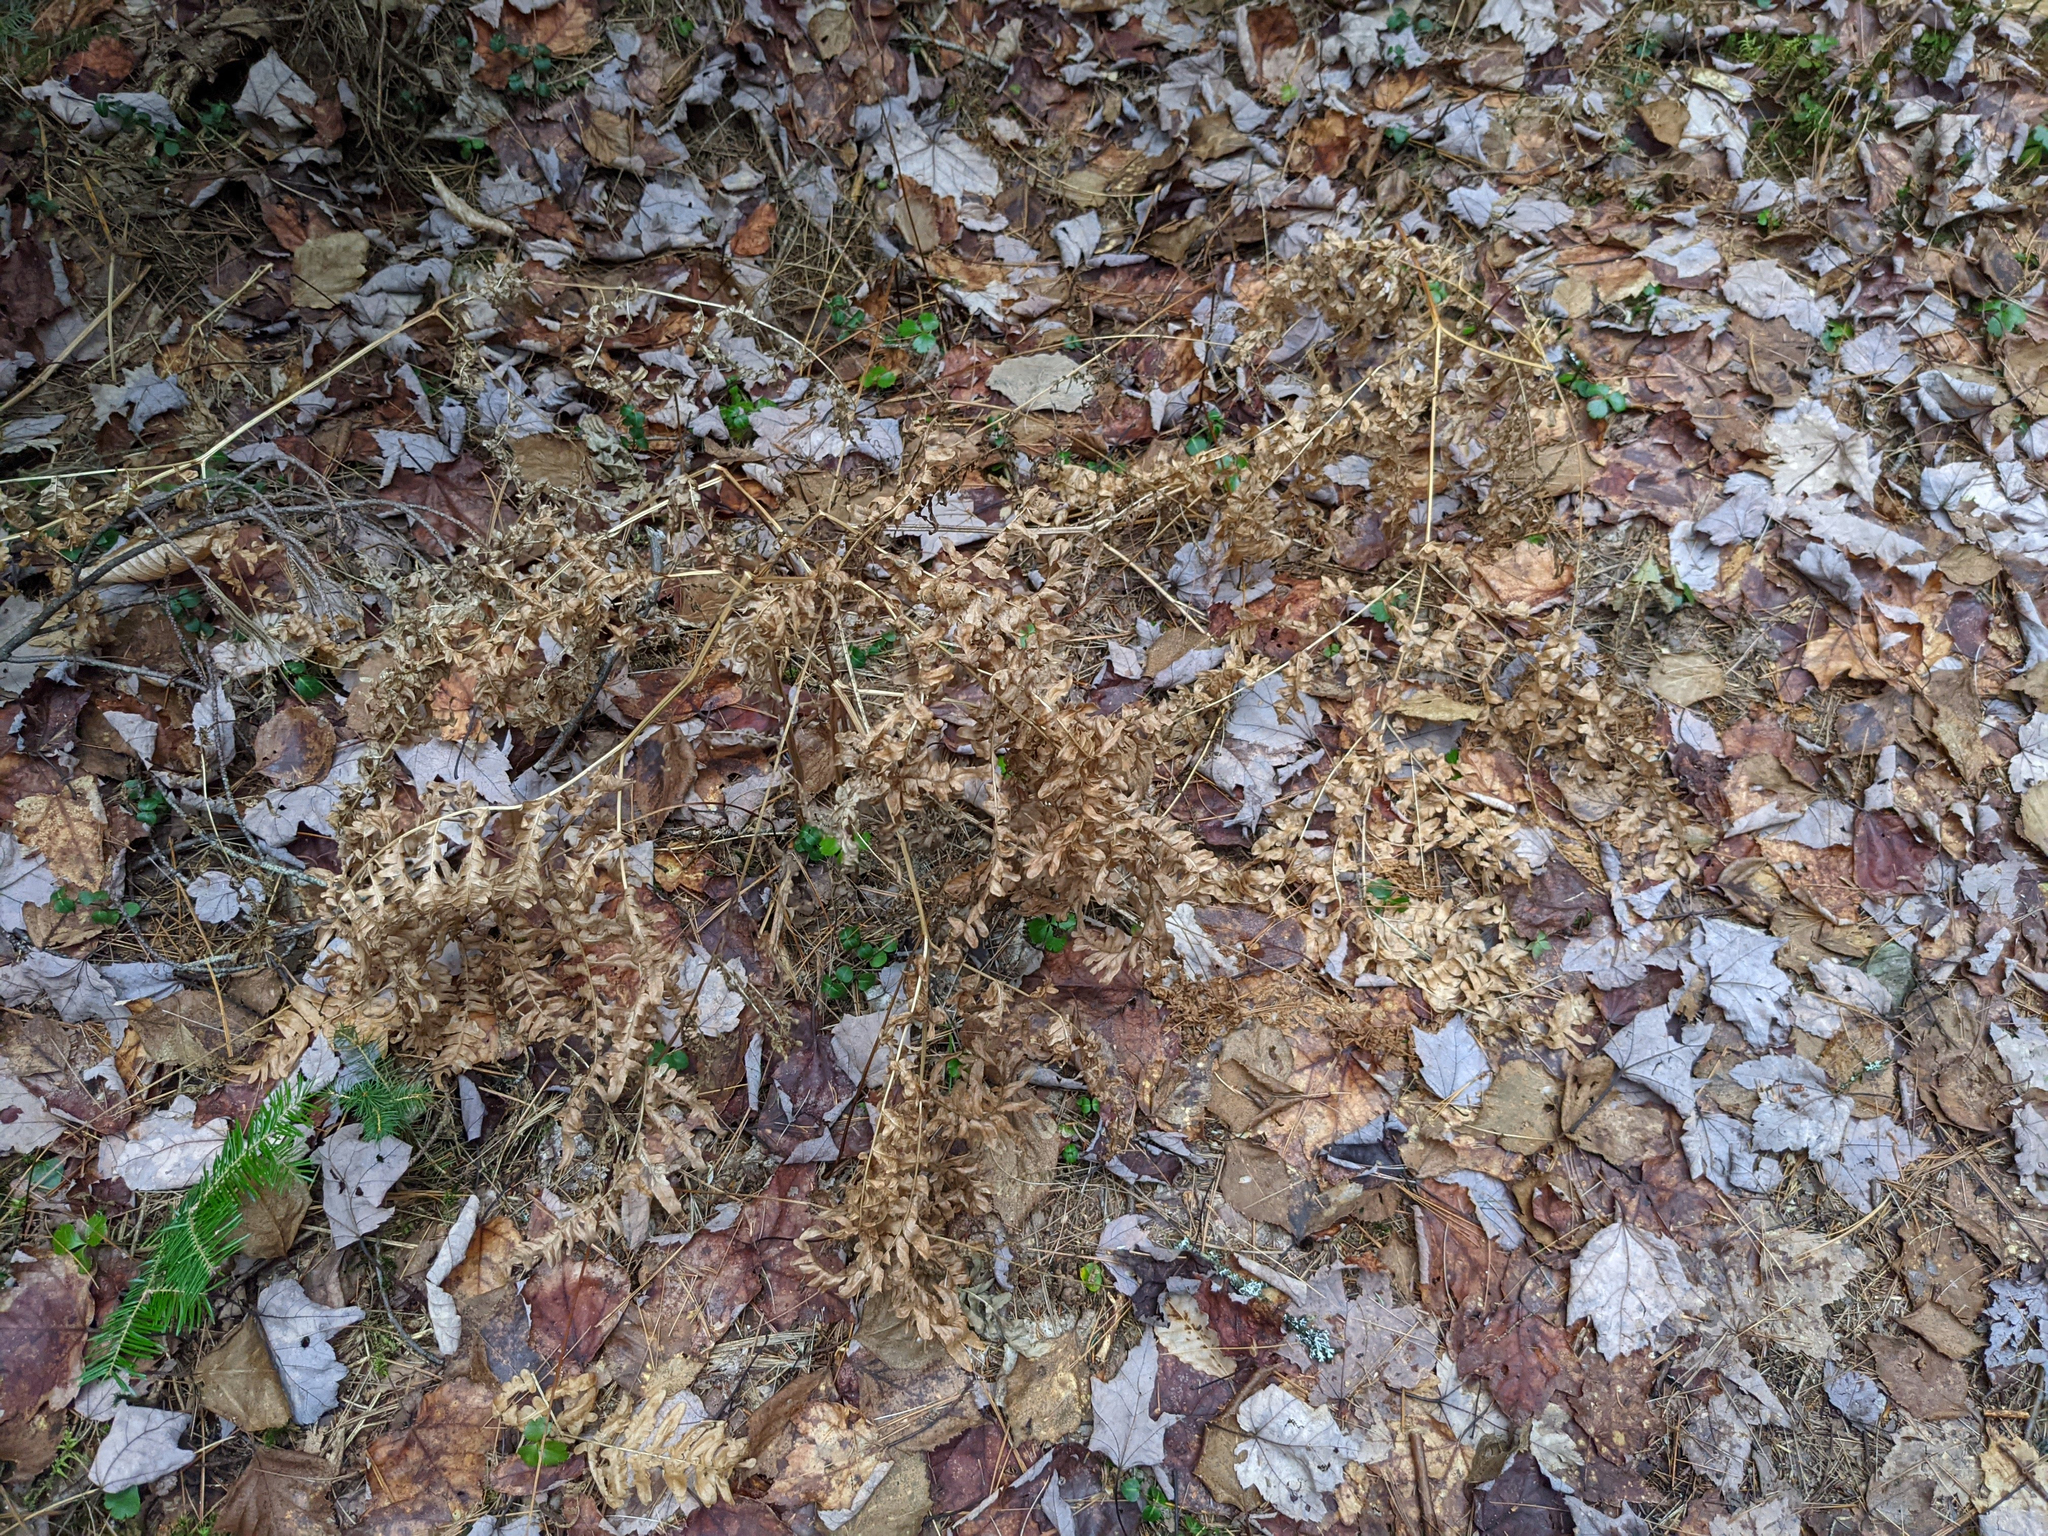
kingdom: Plantae
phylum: Tracheophyta
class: Polypodiopsida
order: Polypodiales
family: Dennstaedtiaceae
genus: Pteridium
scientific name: Pteridium aquilinum
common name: Bracken
